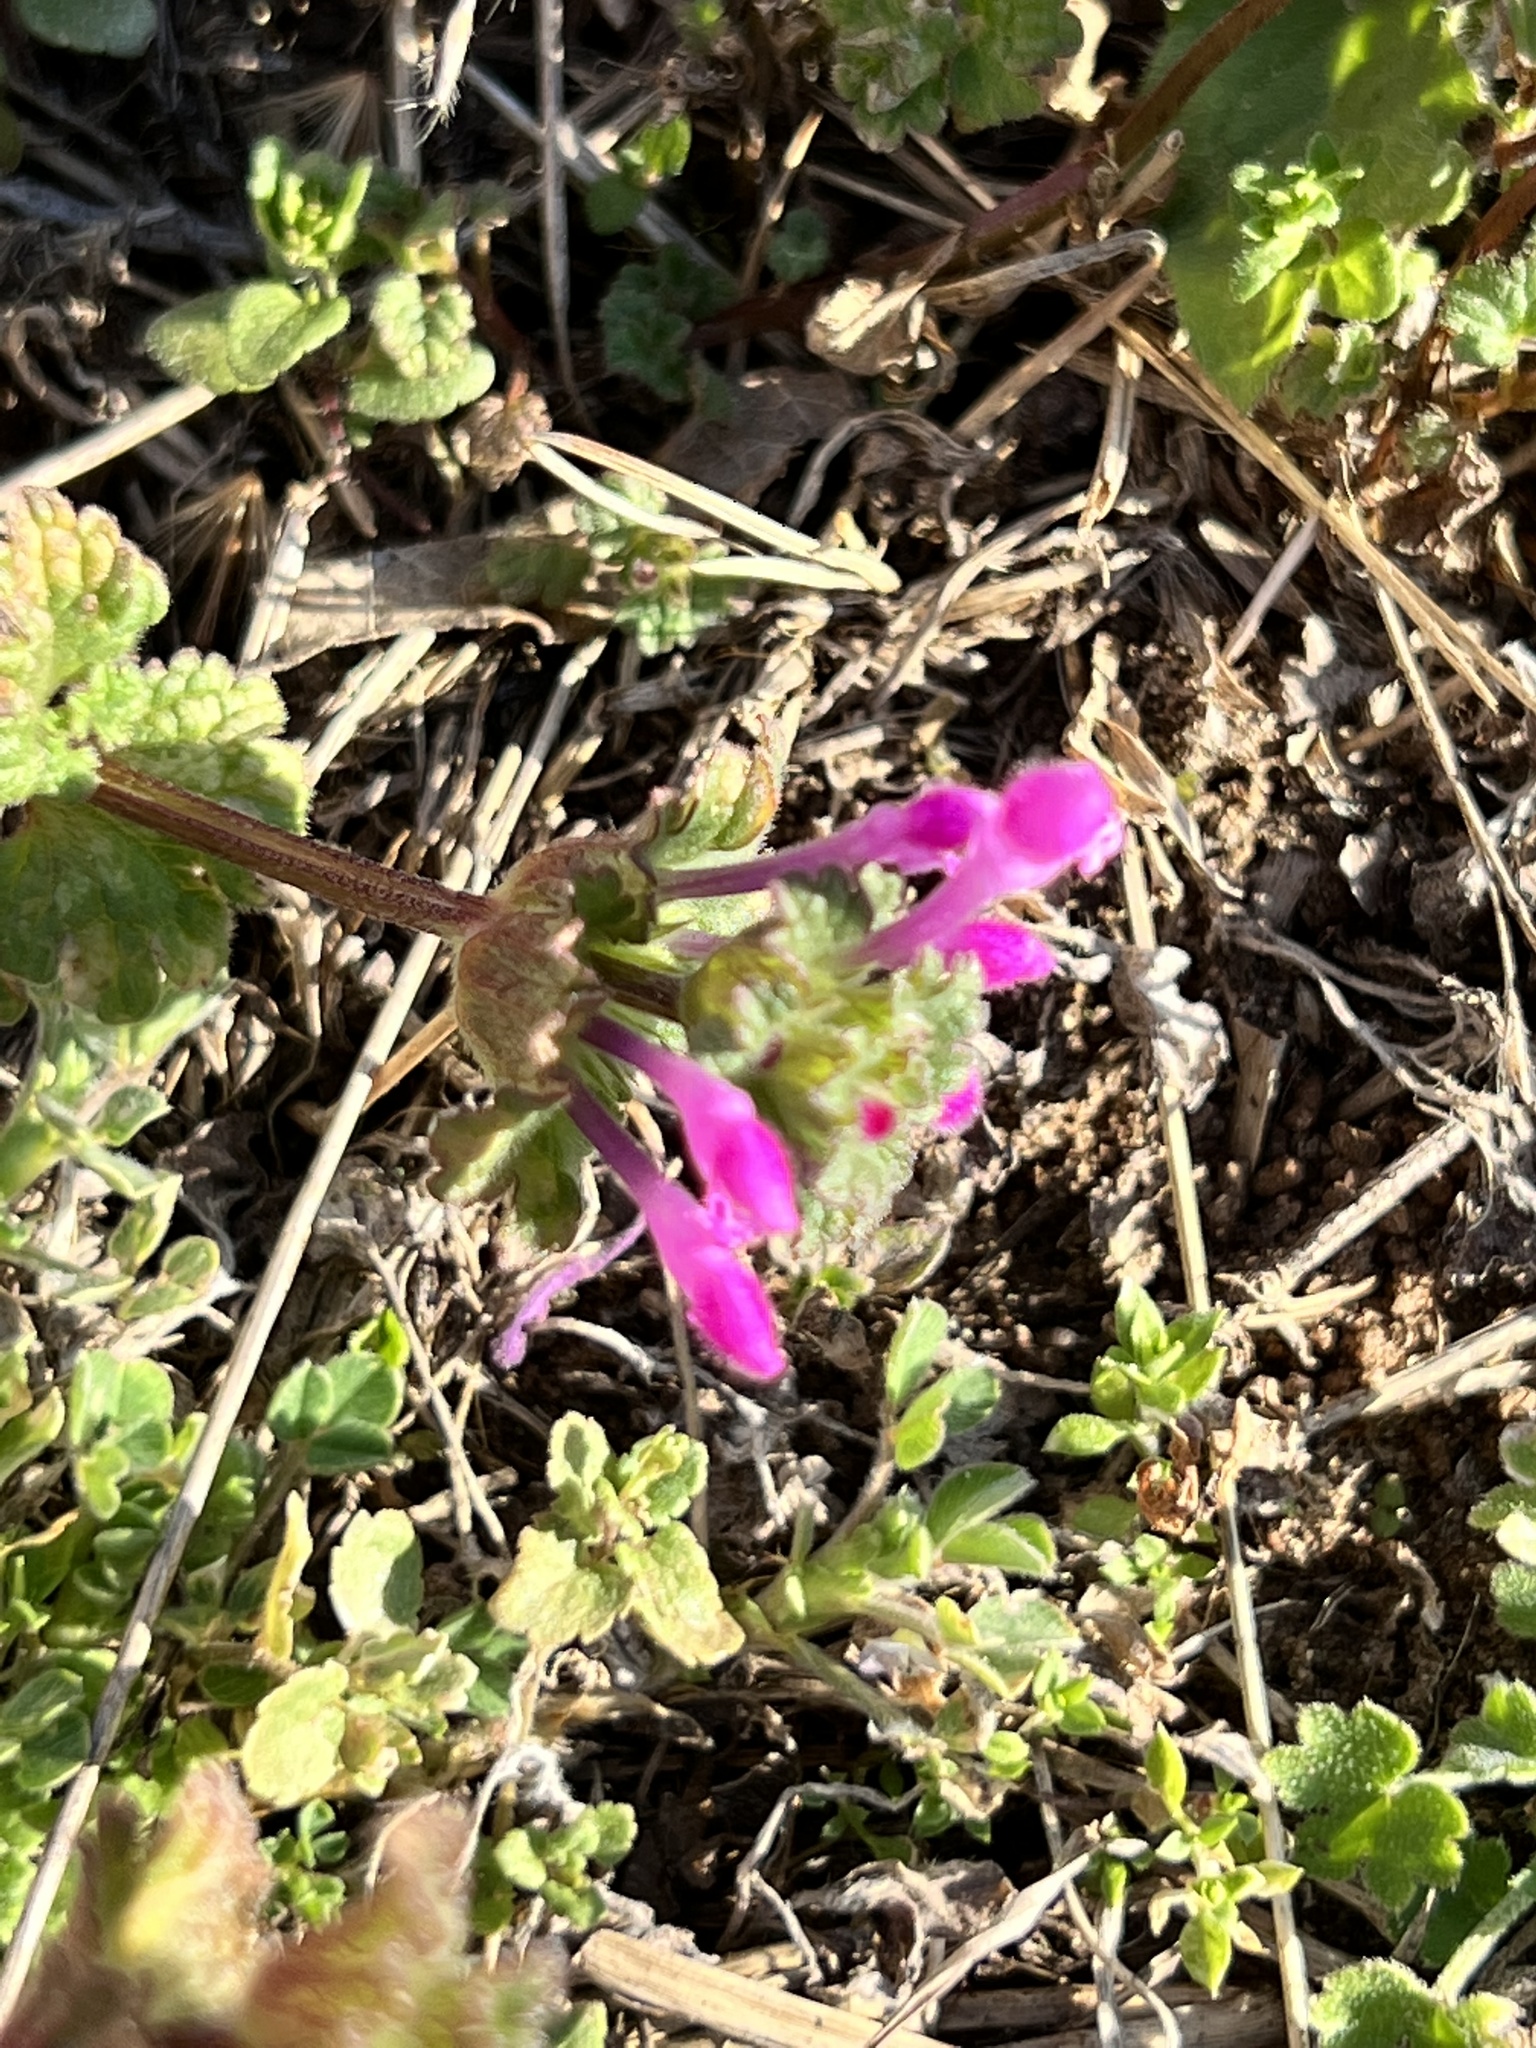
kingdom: Plantae
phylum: Tracheophyta
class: Magnoliopsida
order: Lamiales
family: Lamiaceae
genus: Lamium
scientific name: Lamium amplexicaule
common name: Henbit dead-nettle
